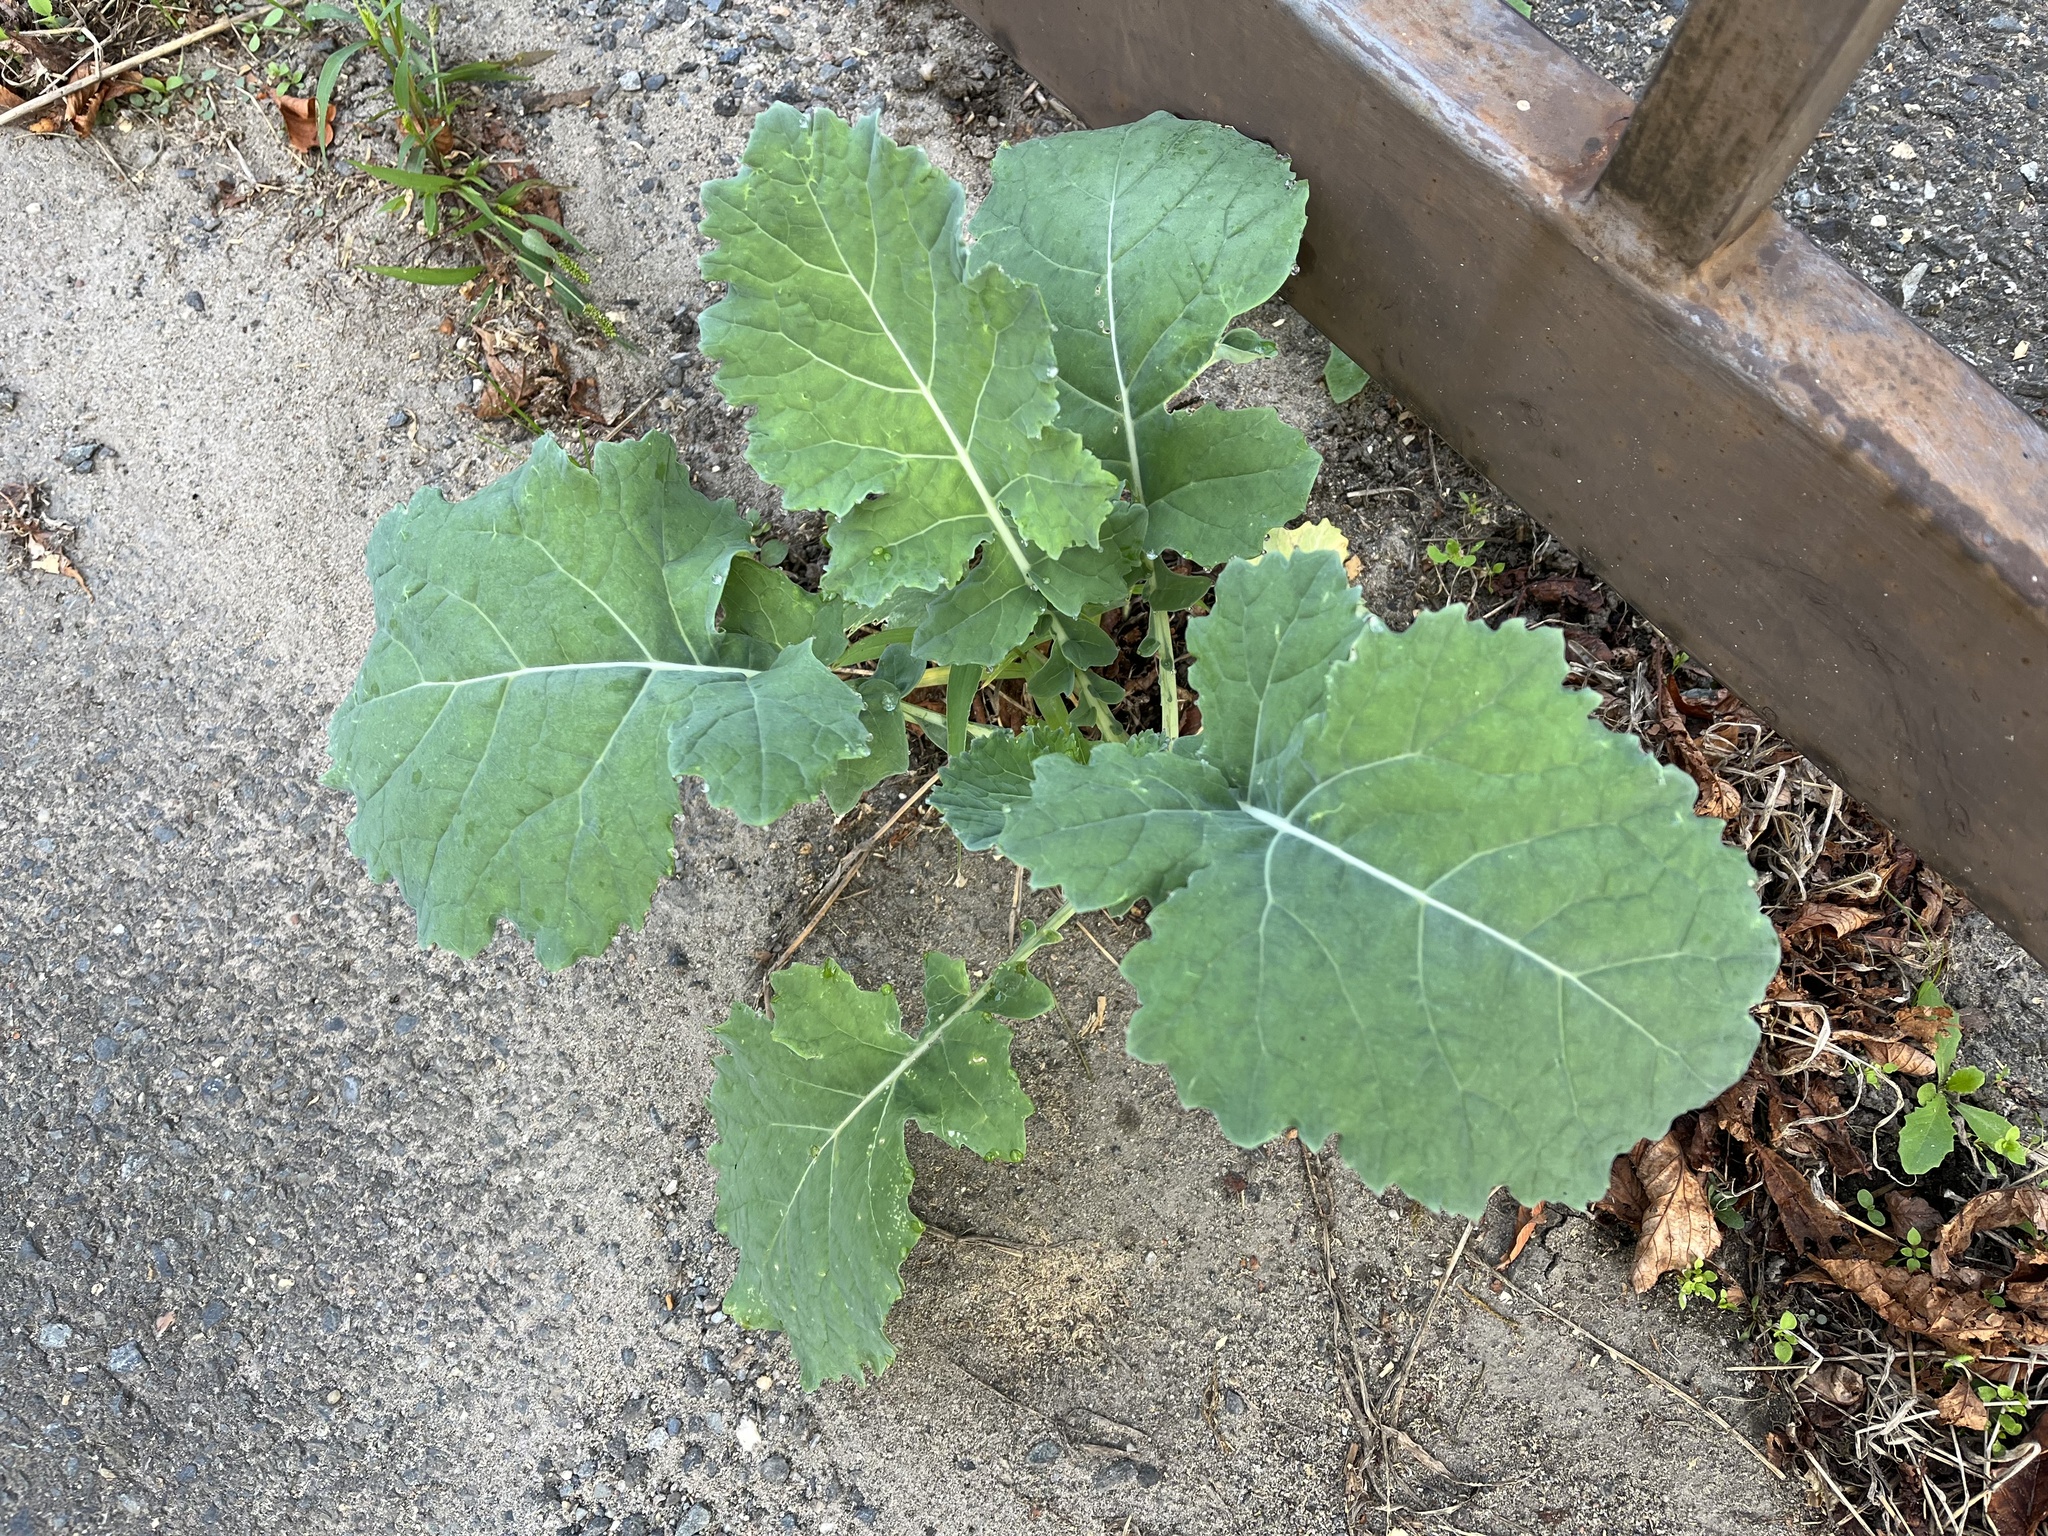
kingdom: Plantae
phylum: Tracheophyta
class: Magnoliopsida
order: Brassicales
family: Brassicaceae
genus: Brassica
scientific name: Brassica napus
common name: Rape
